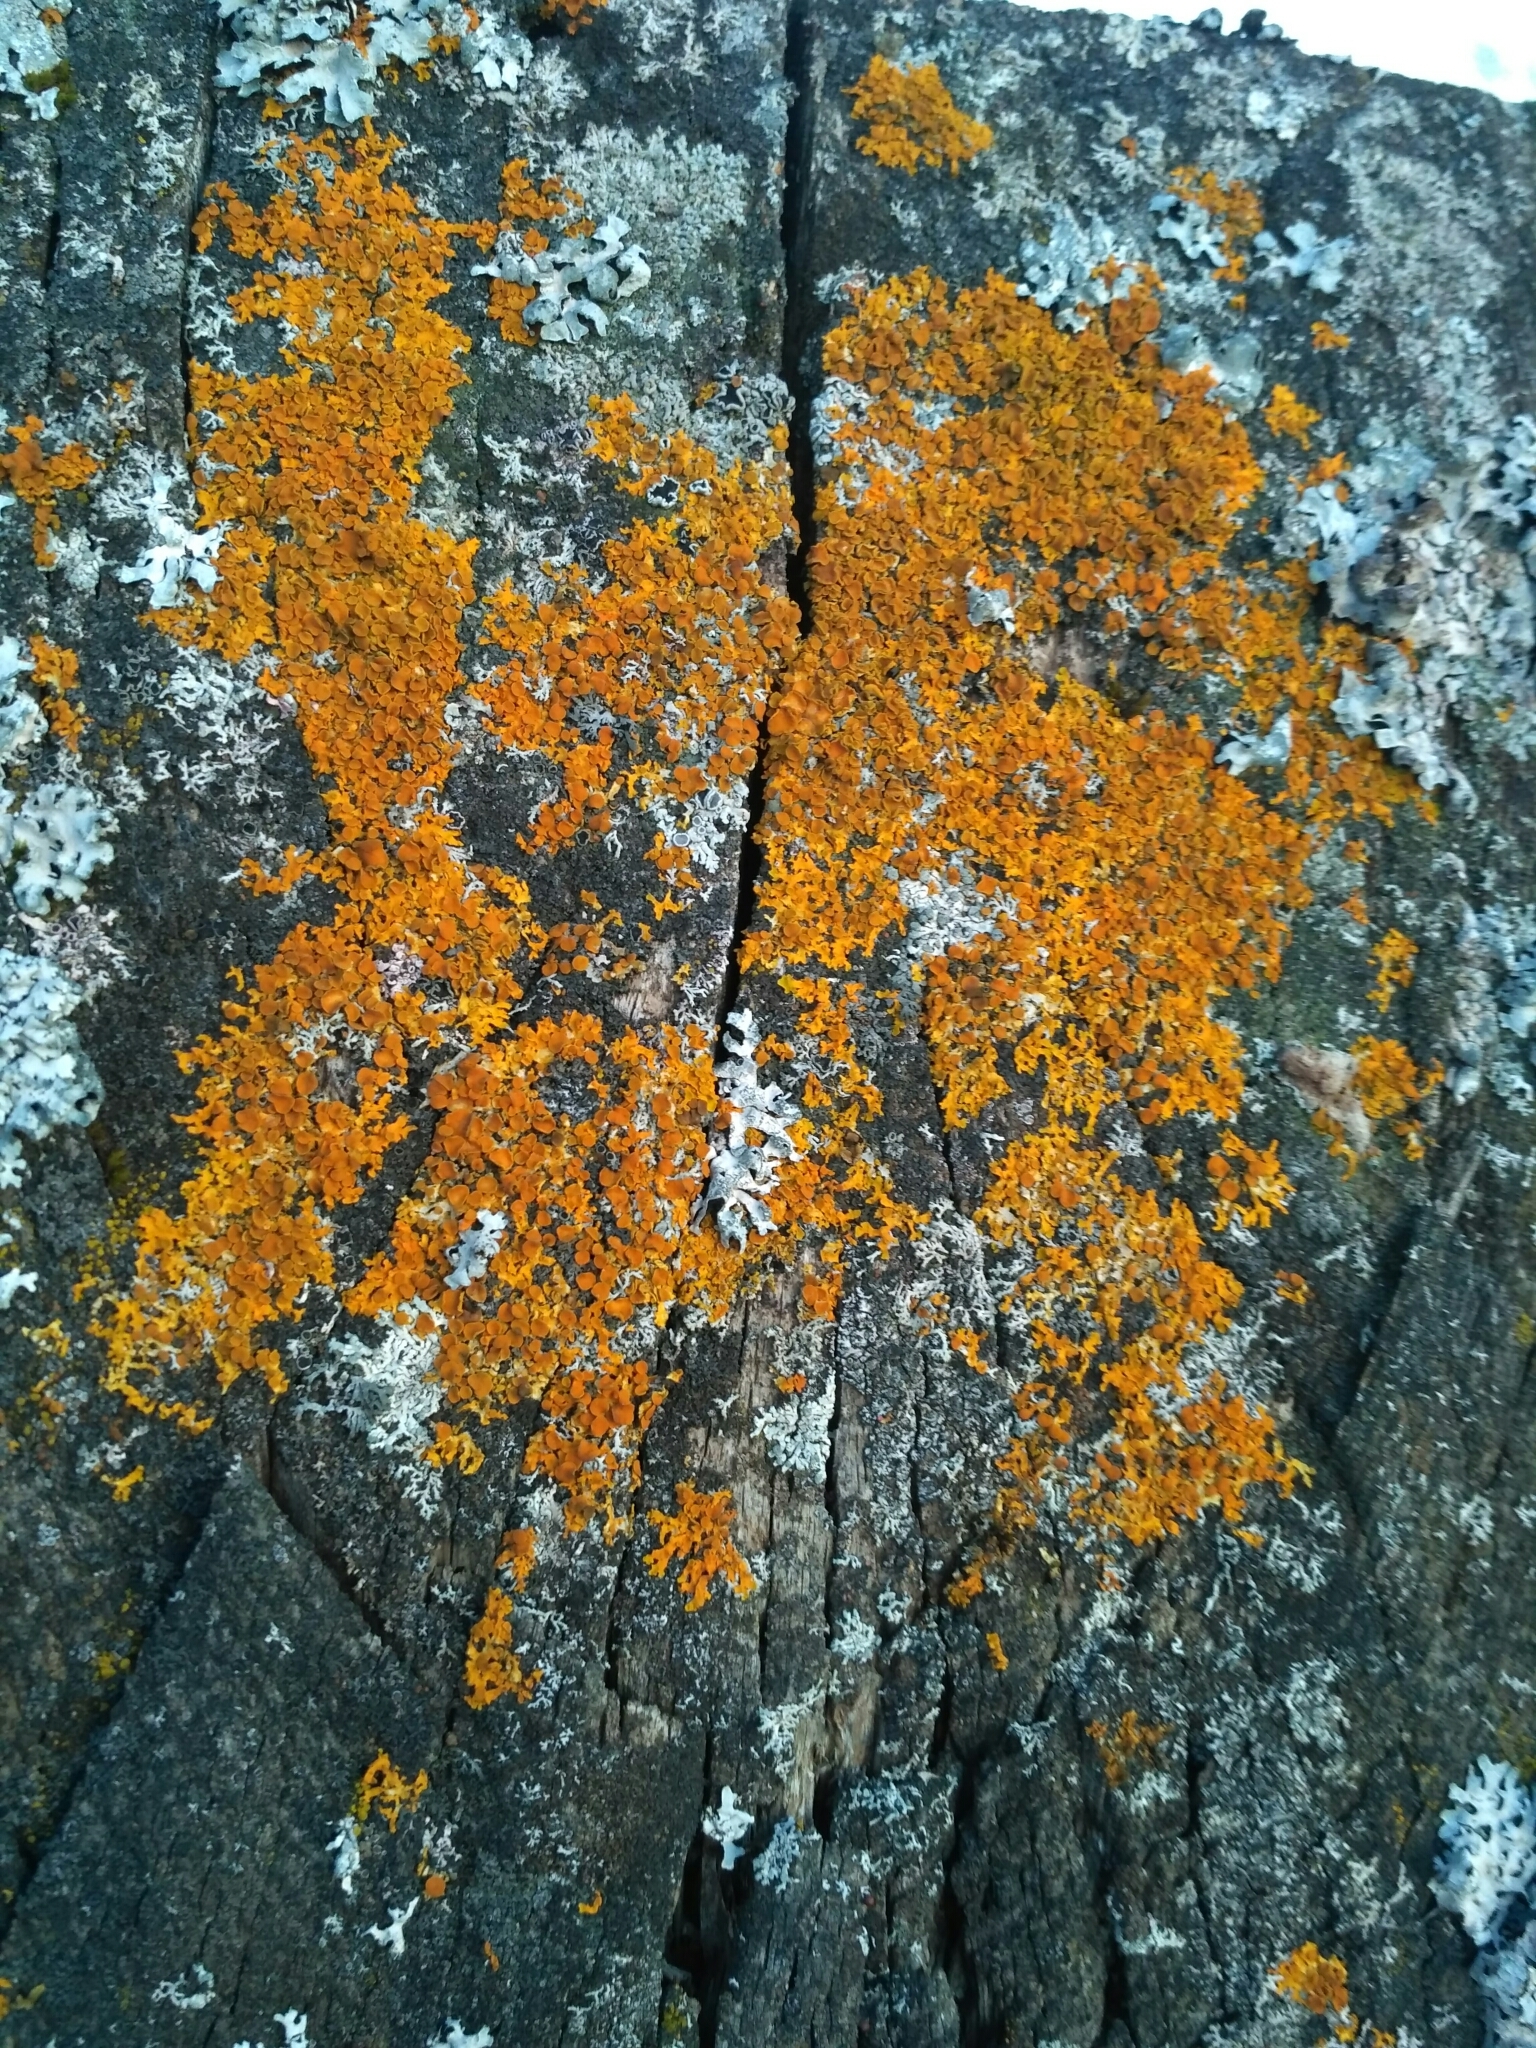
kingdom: Fungi
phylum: Ascomycota
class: Lecanoromycetes
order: Teloschistales
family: Teloschistaceae
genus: Xanthoria
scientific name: Xanthoria parietina
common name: Common orange lichen
